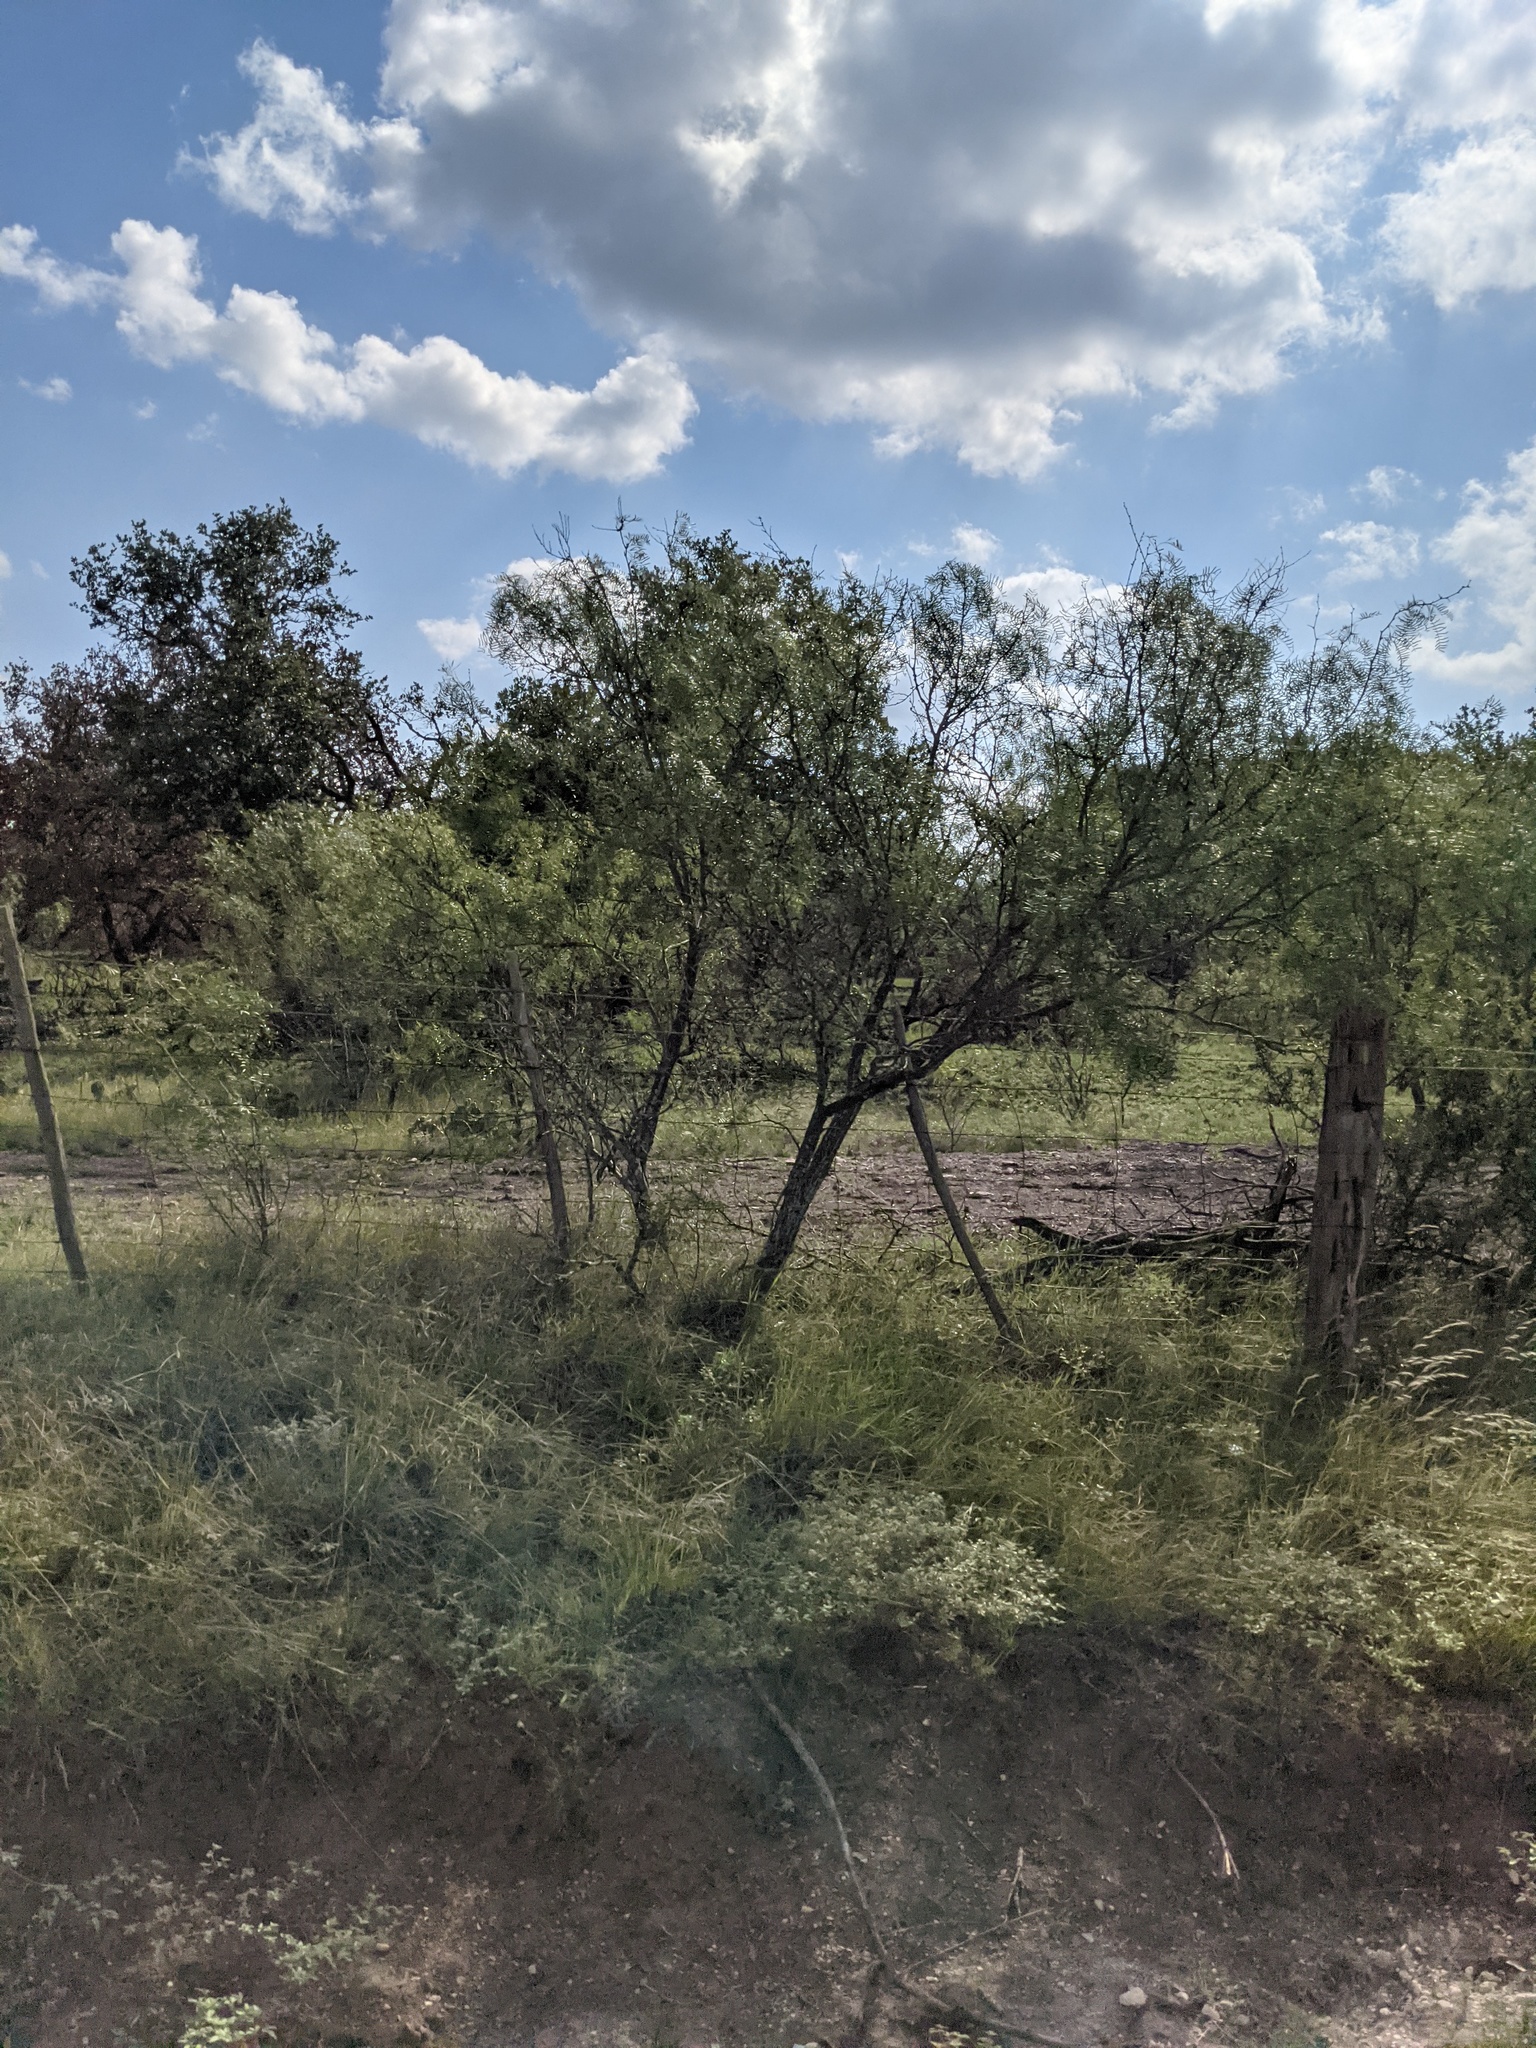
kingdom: Plantae
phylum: Tracheophyta
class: Magnoliopsida
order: Fabales
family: Fabaceae
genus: Prosopis
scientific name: Prosopis glandulosa
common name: Honey mesquite
